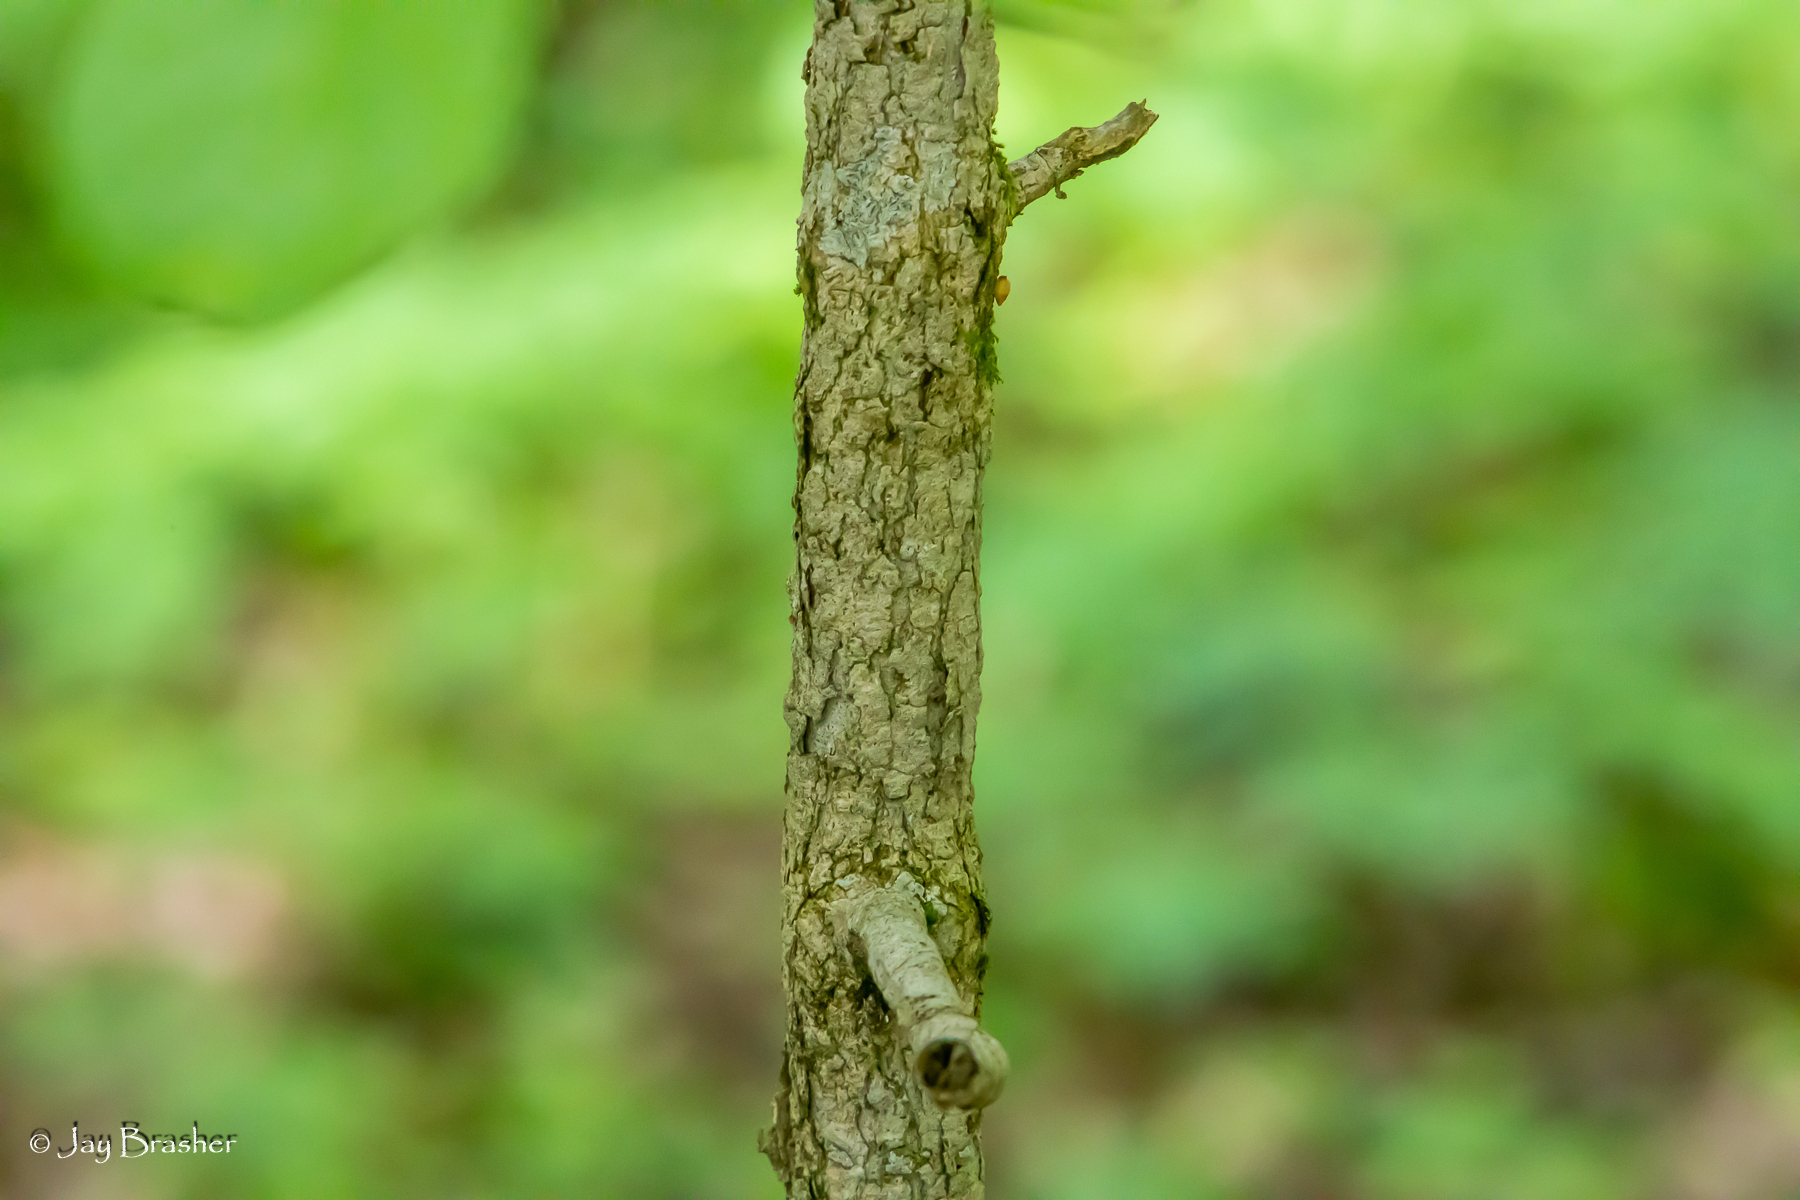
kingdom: Plantae
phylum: Tracheophyta
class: Magnoliopsida
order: Lamiales
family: Oleaceae
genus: Fraxinus
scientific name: Fraxinus quadrangulata
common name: Blue ash
